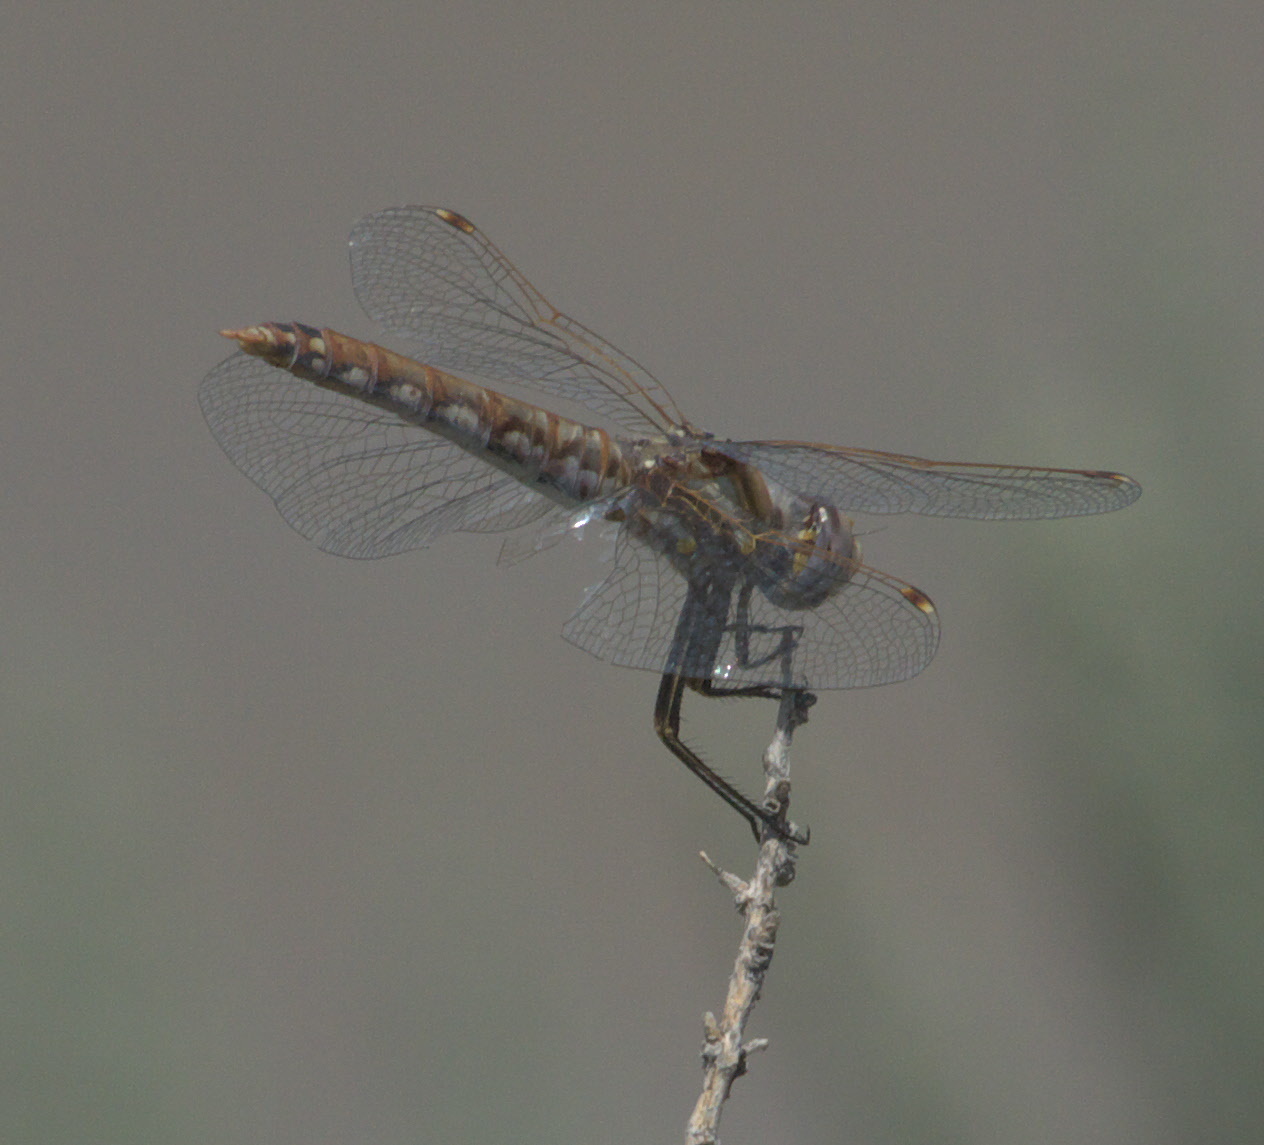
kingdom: Animalia
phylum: Arthropoda
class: Insecta
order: Odonata
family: Libellulidae
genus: Sympetrum
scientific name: Sympetrum corruptum
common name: Variegated meadowhawk
